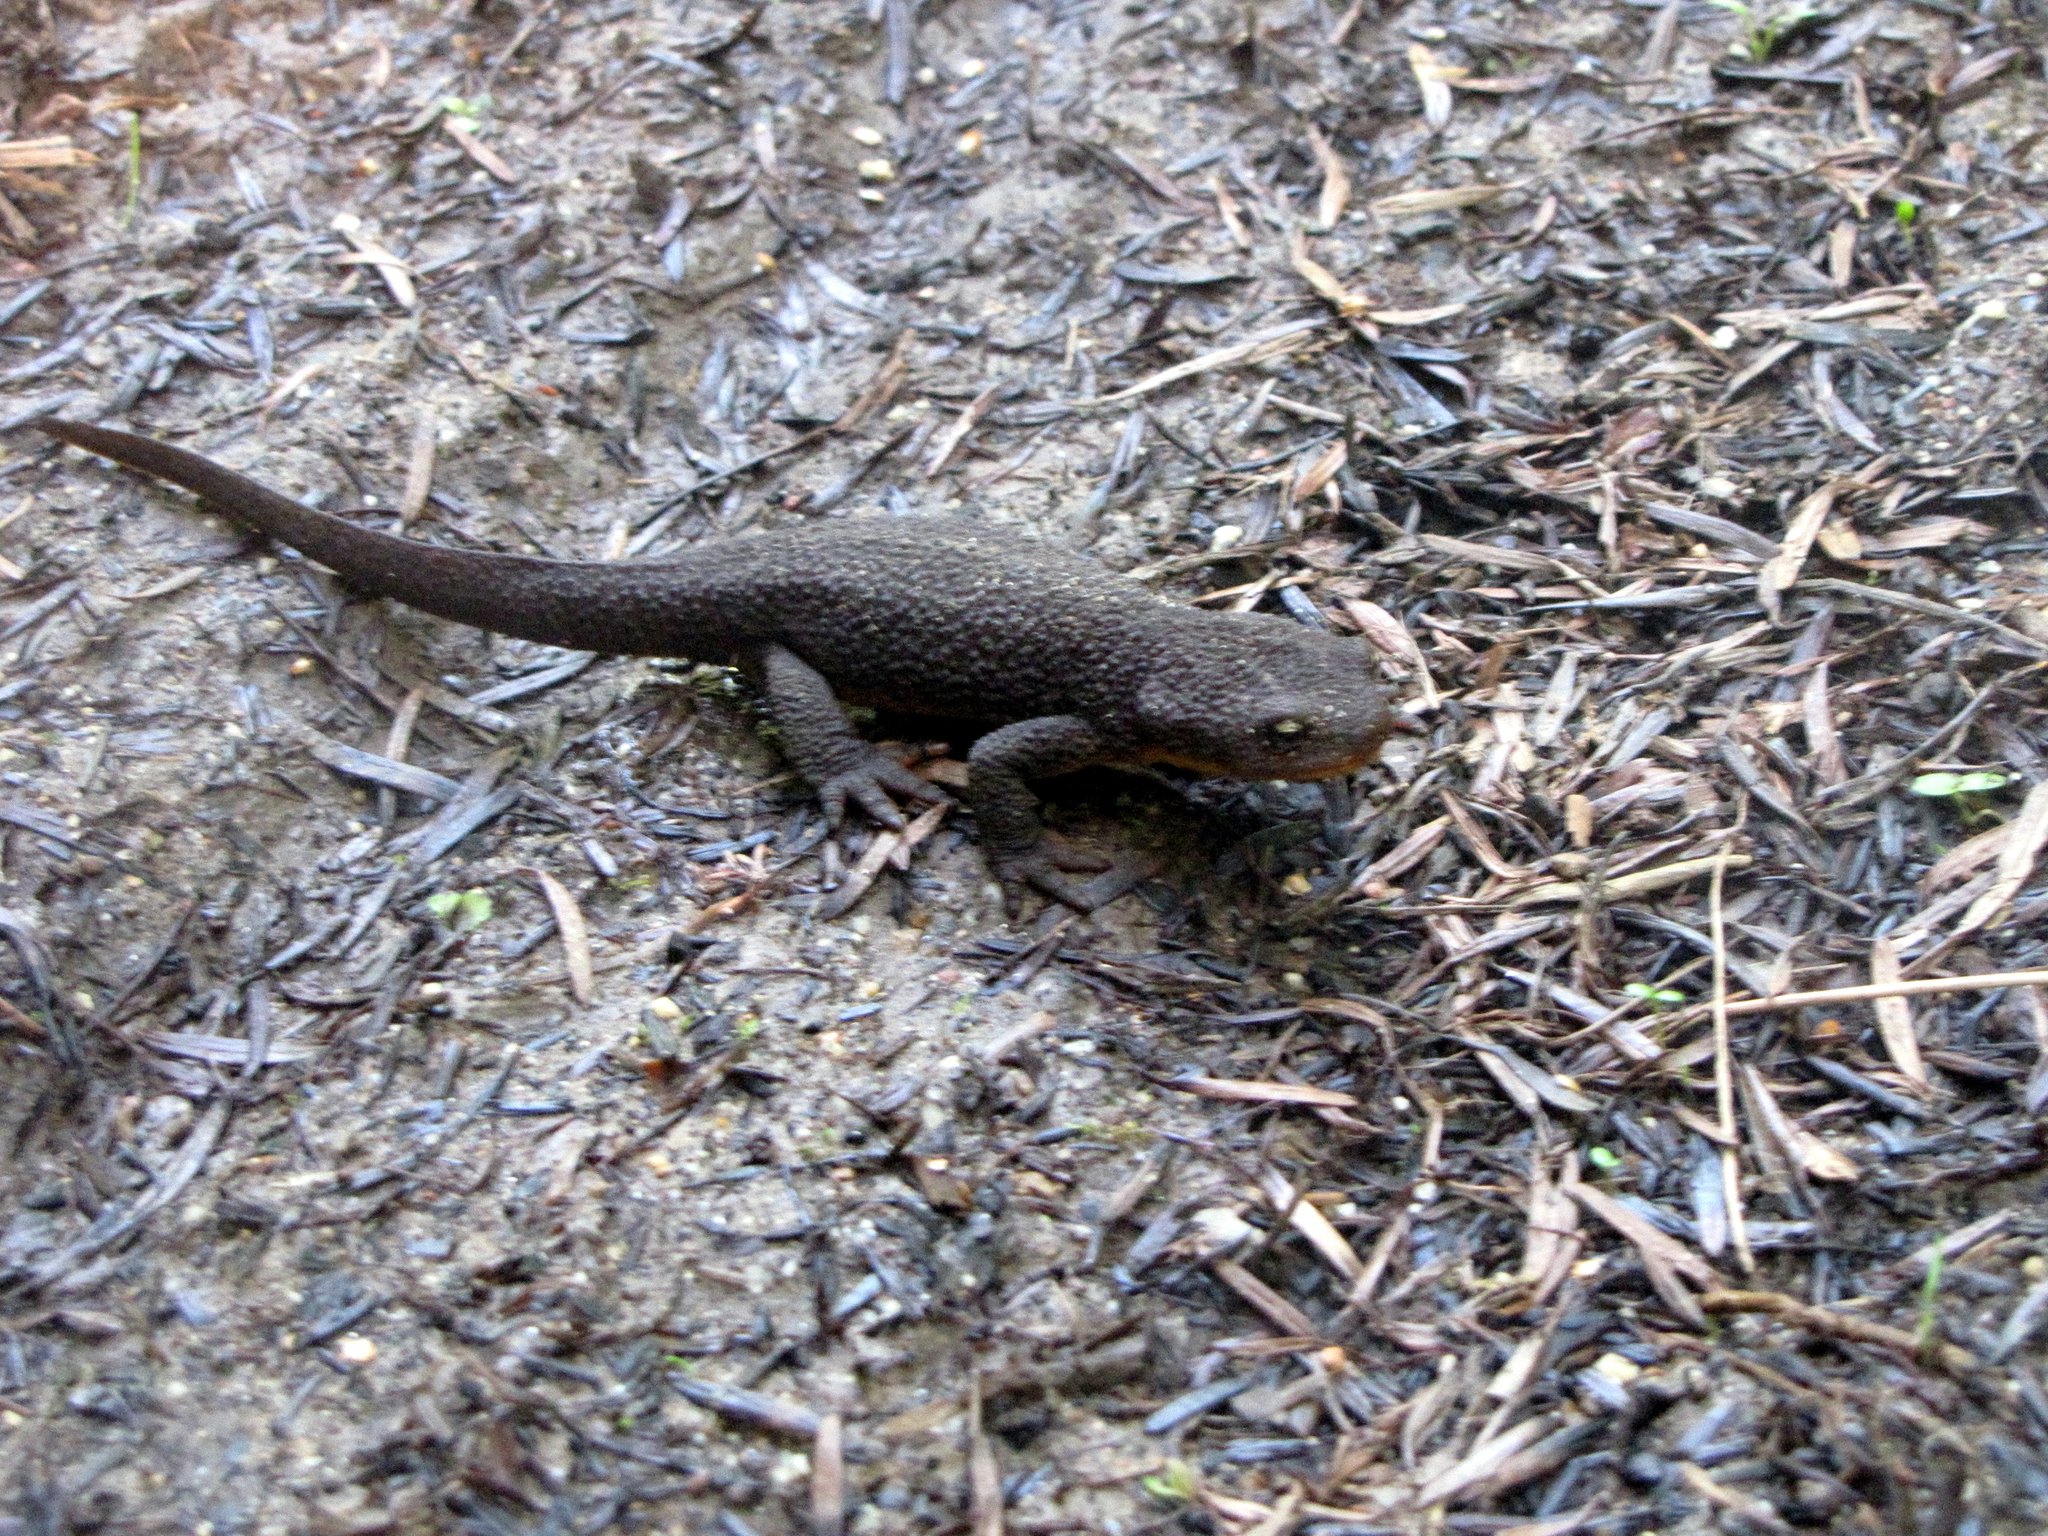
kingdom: Animalia
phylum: Chordata
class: Amphibia
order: Caudata
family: Salamandridae
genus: Taricha
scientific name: Taricha granulosa
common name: Roughskin newt
